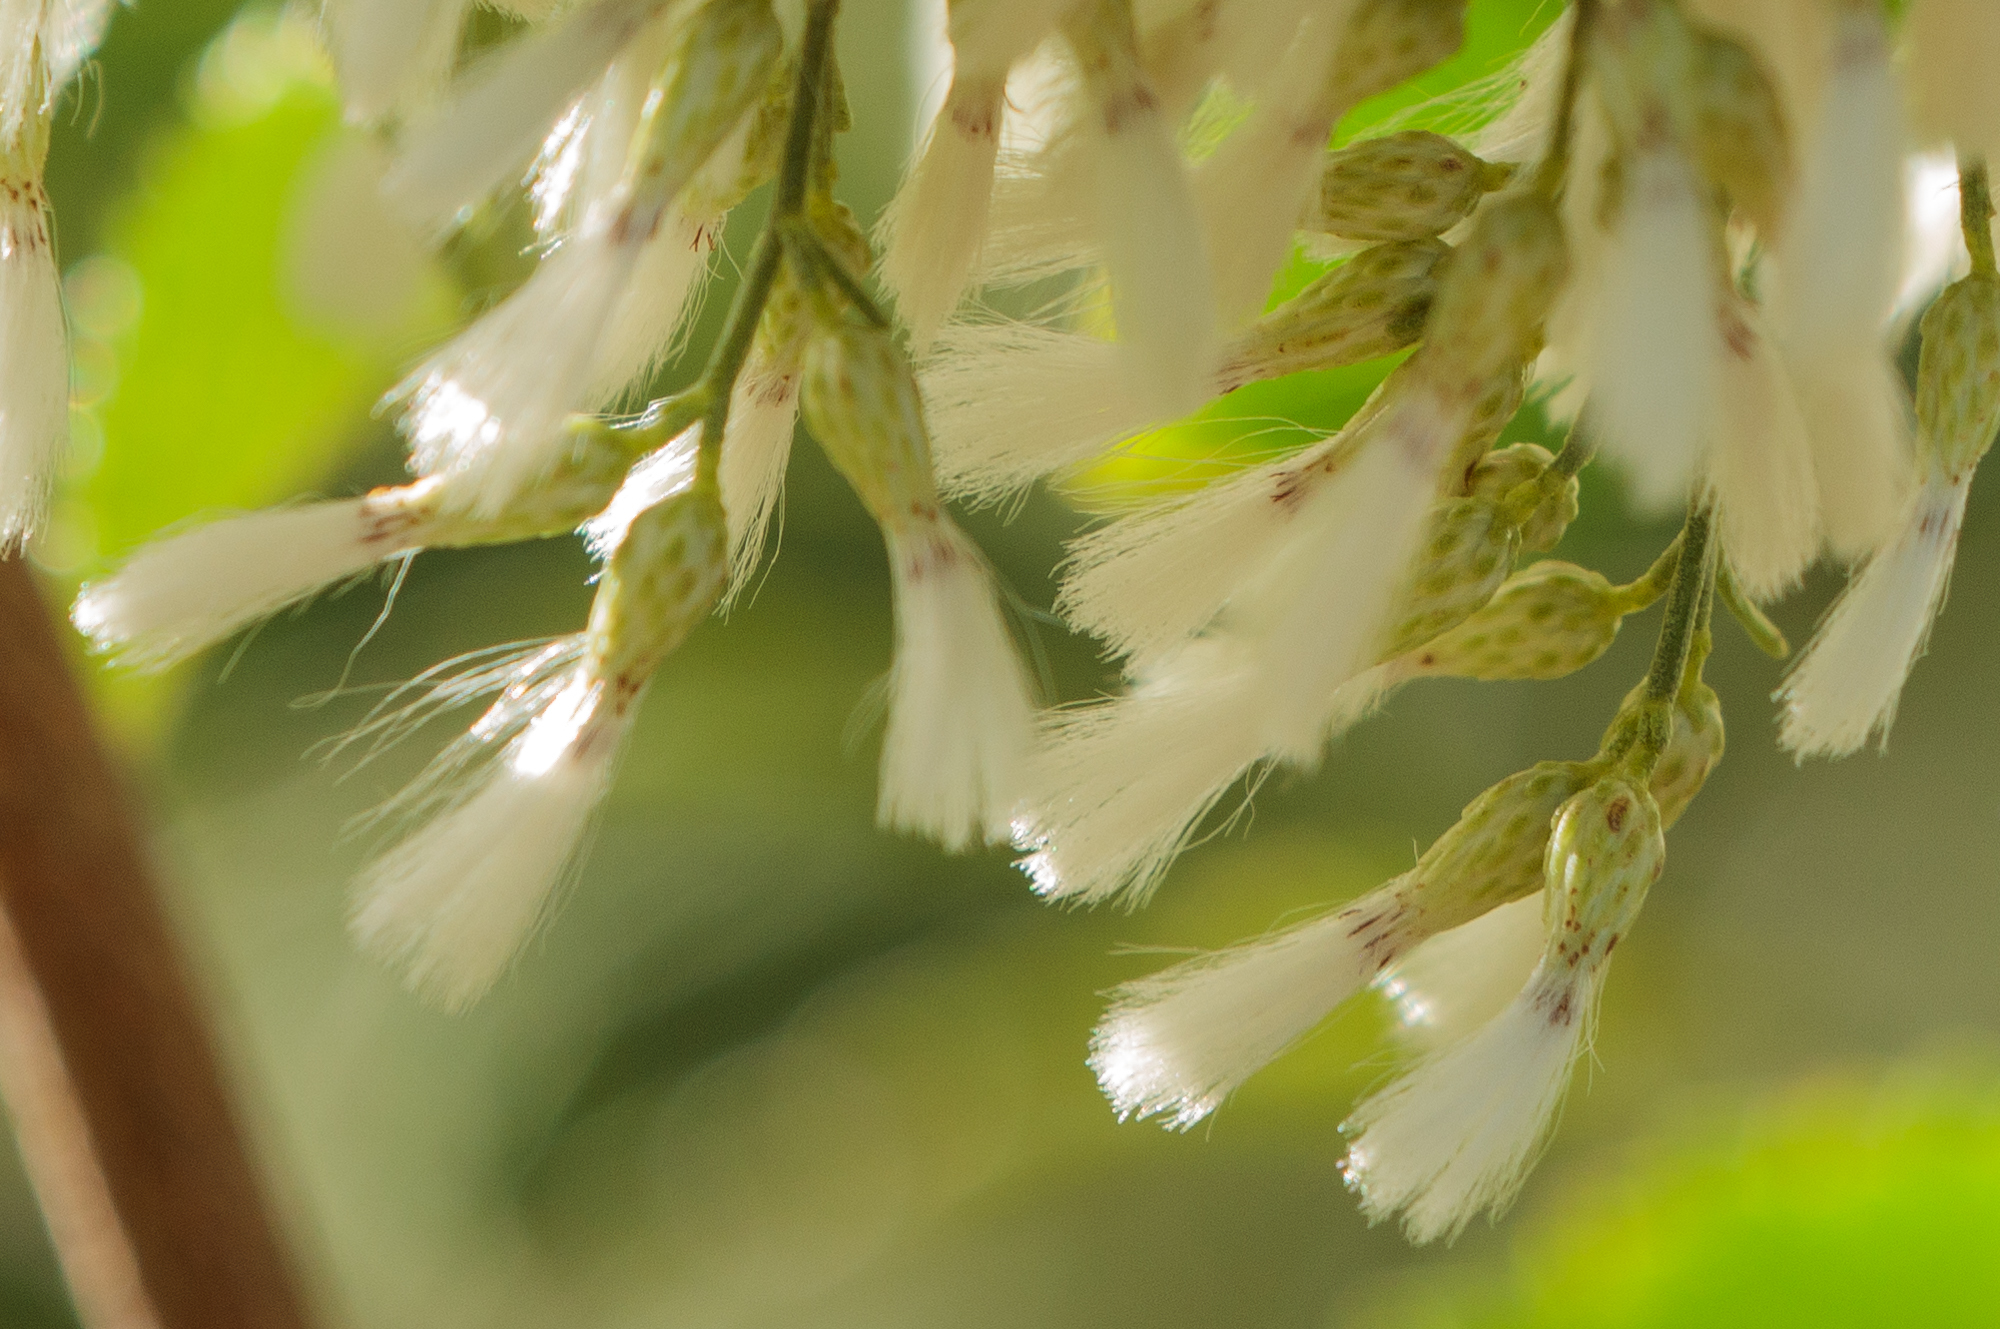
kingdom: Plantae
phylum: Tracheophyta
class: Magnoliopsida
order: Asterales
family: Asteraceae
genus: Baccharis
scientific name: Baccharis neglecta
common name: Roosevelt-weed
